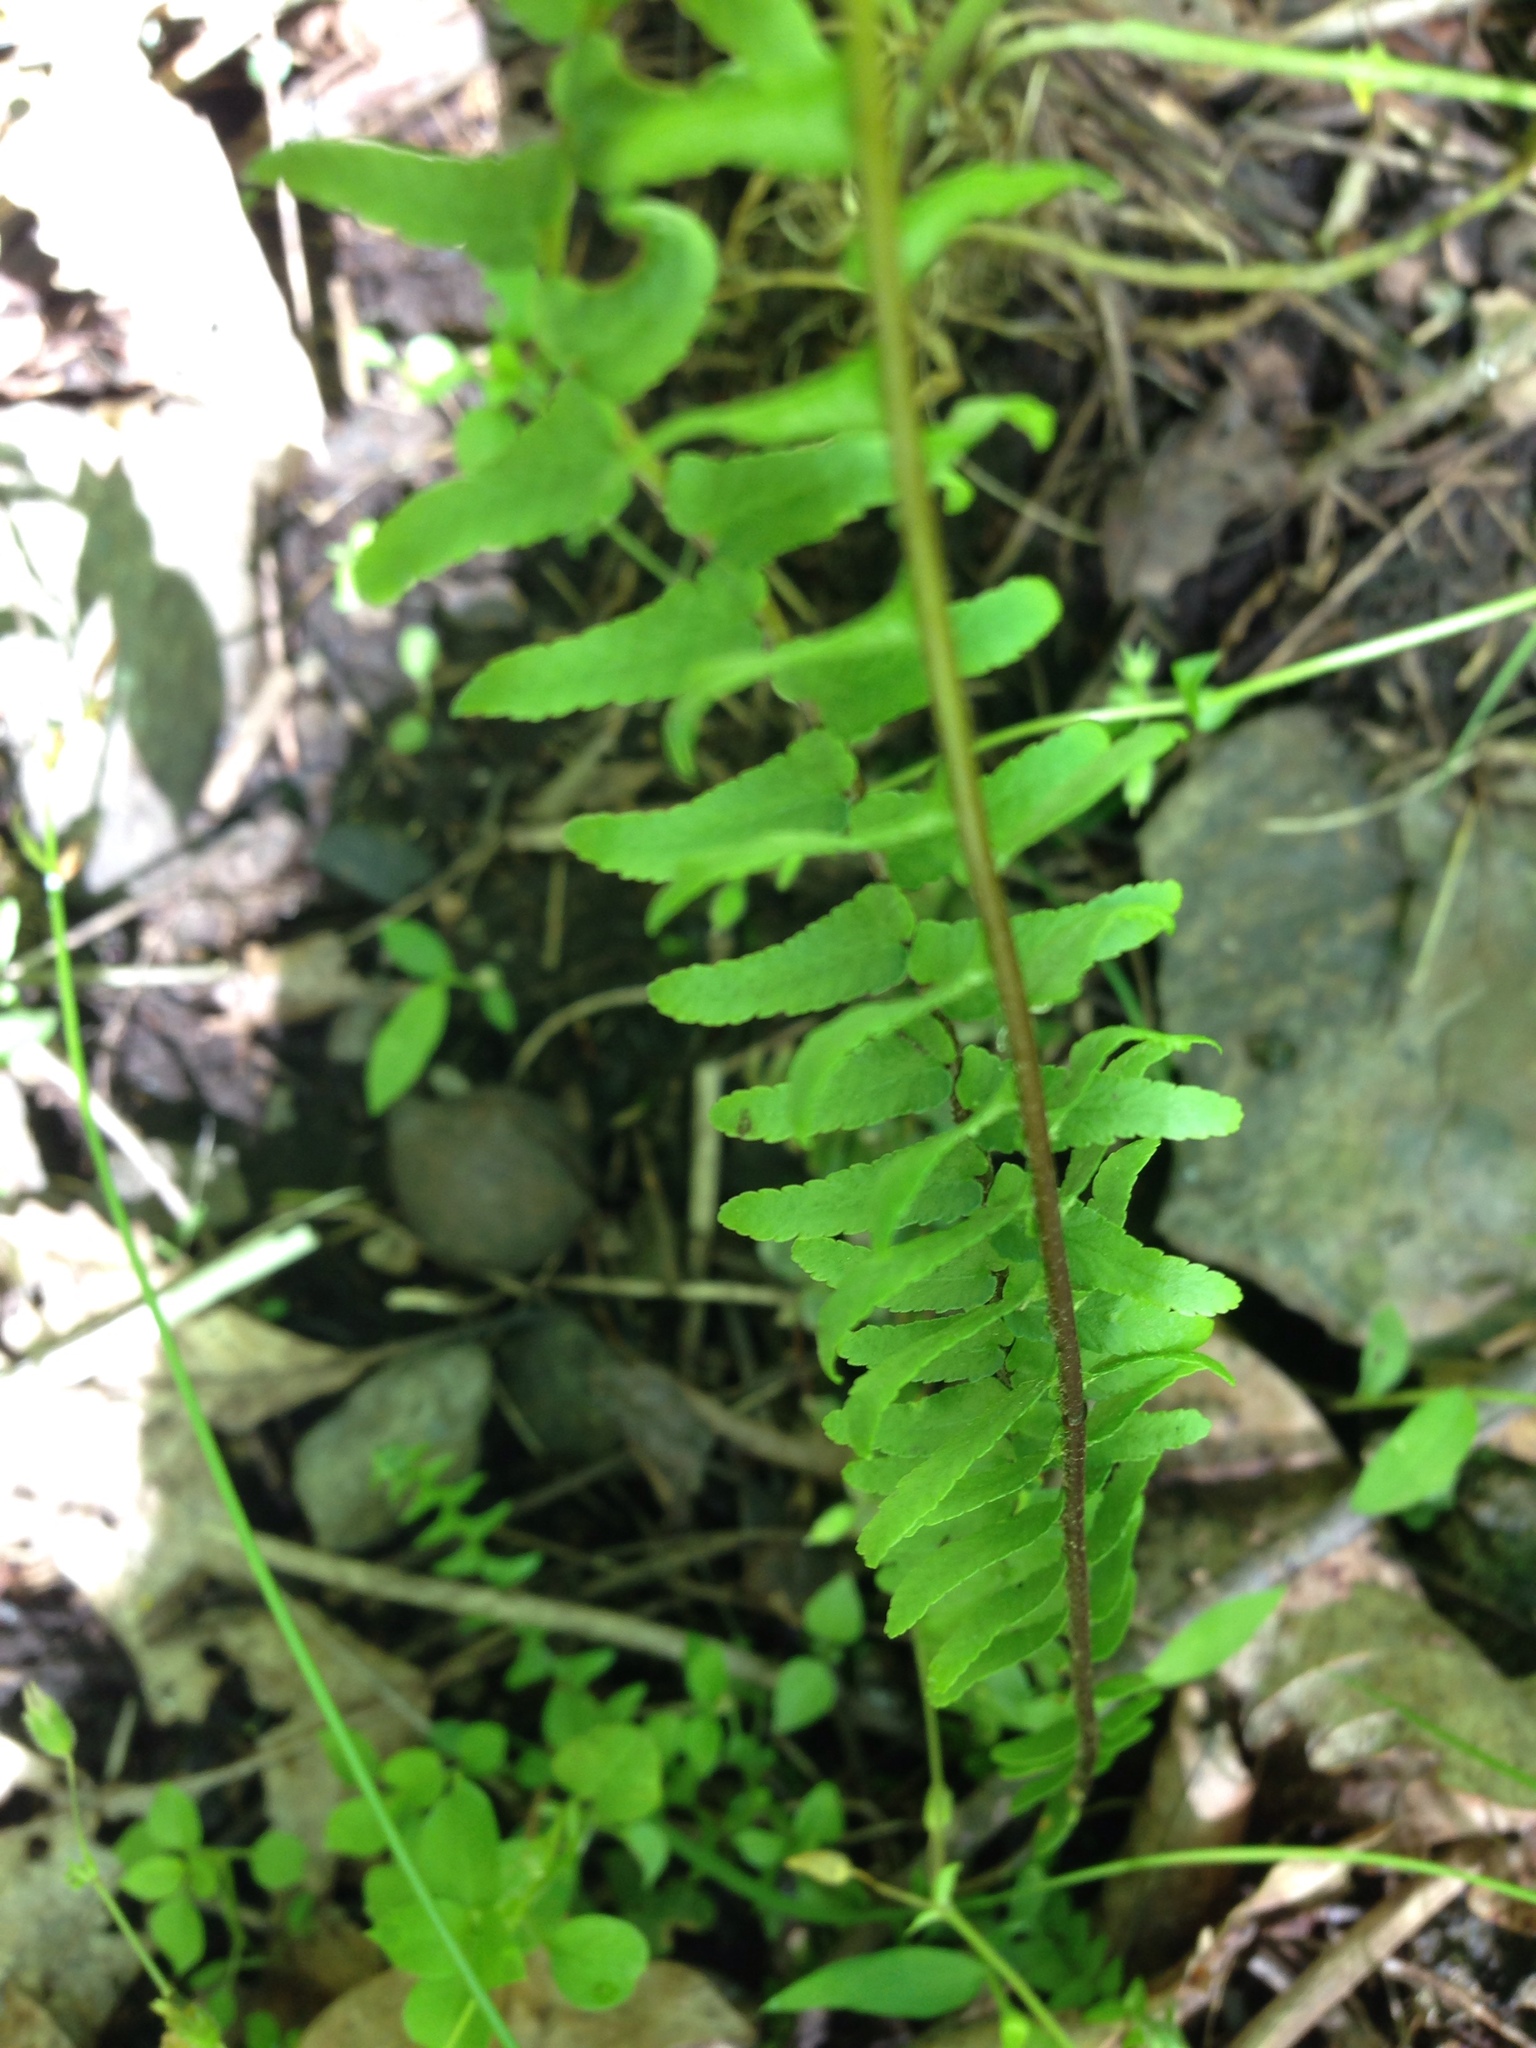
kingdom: Plantae
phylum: Tracheophyta
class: Polypodiopsida
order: Polypodiales
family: Aspleniaceae
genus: Asplenium
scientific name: Asplenium platyneuron
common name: Ebony spleenwort
